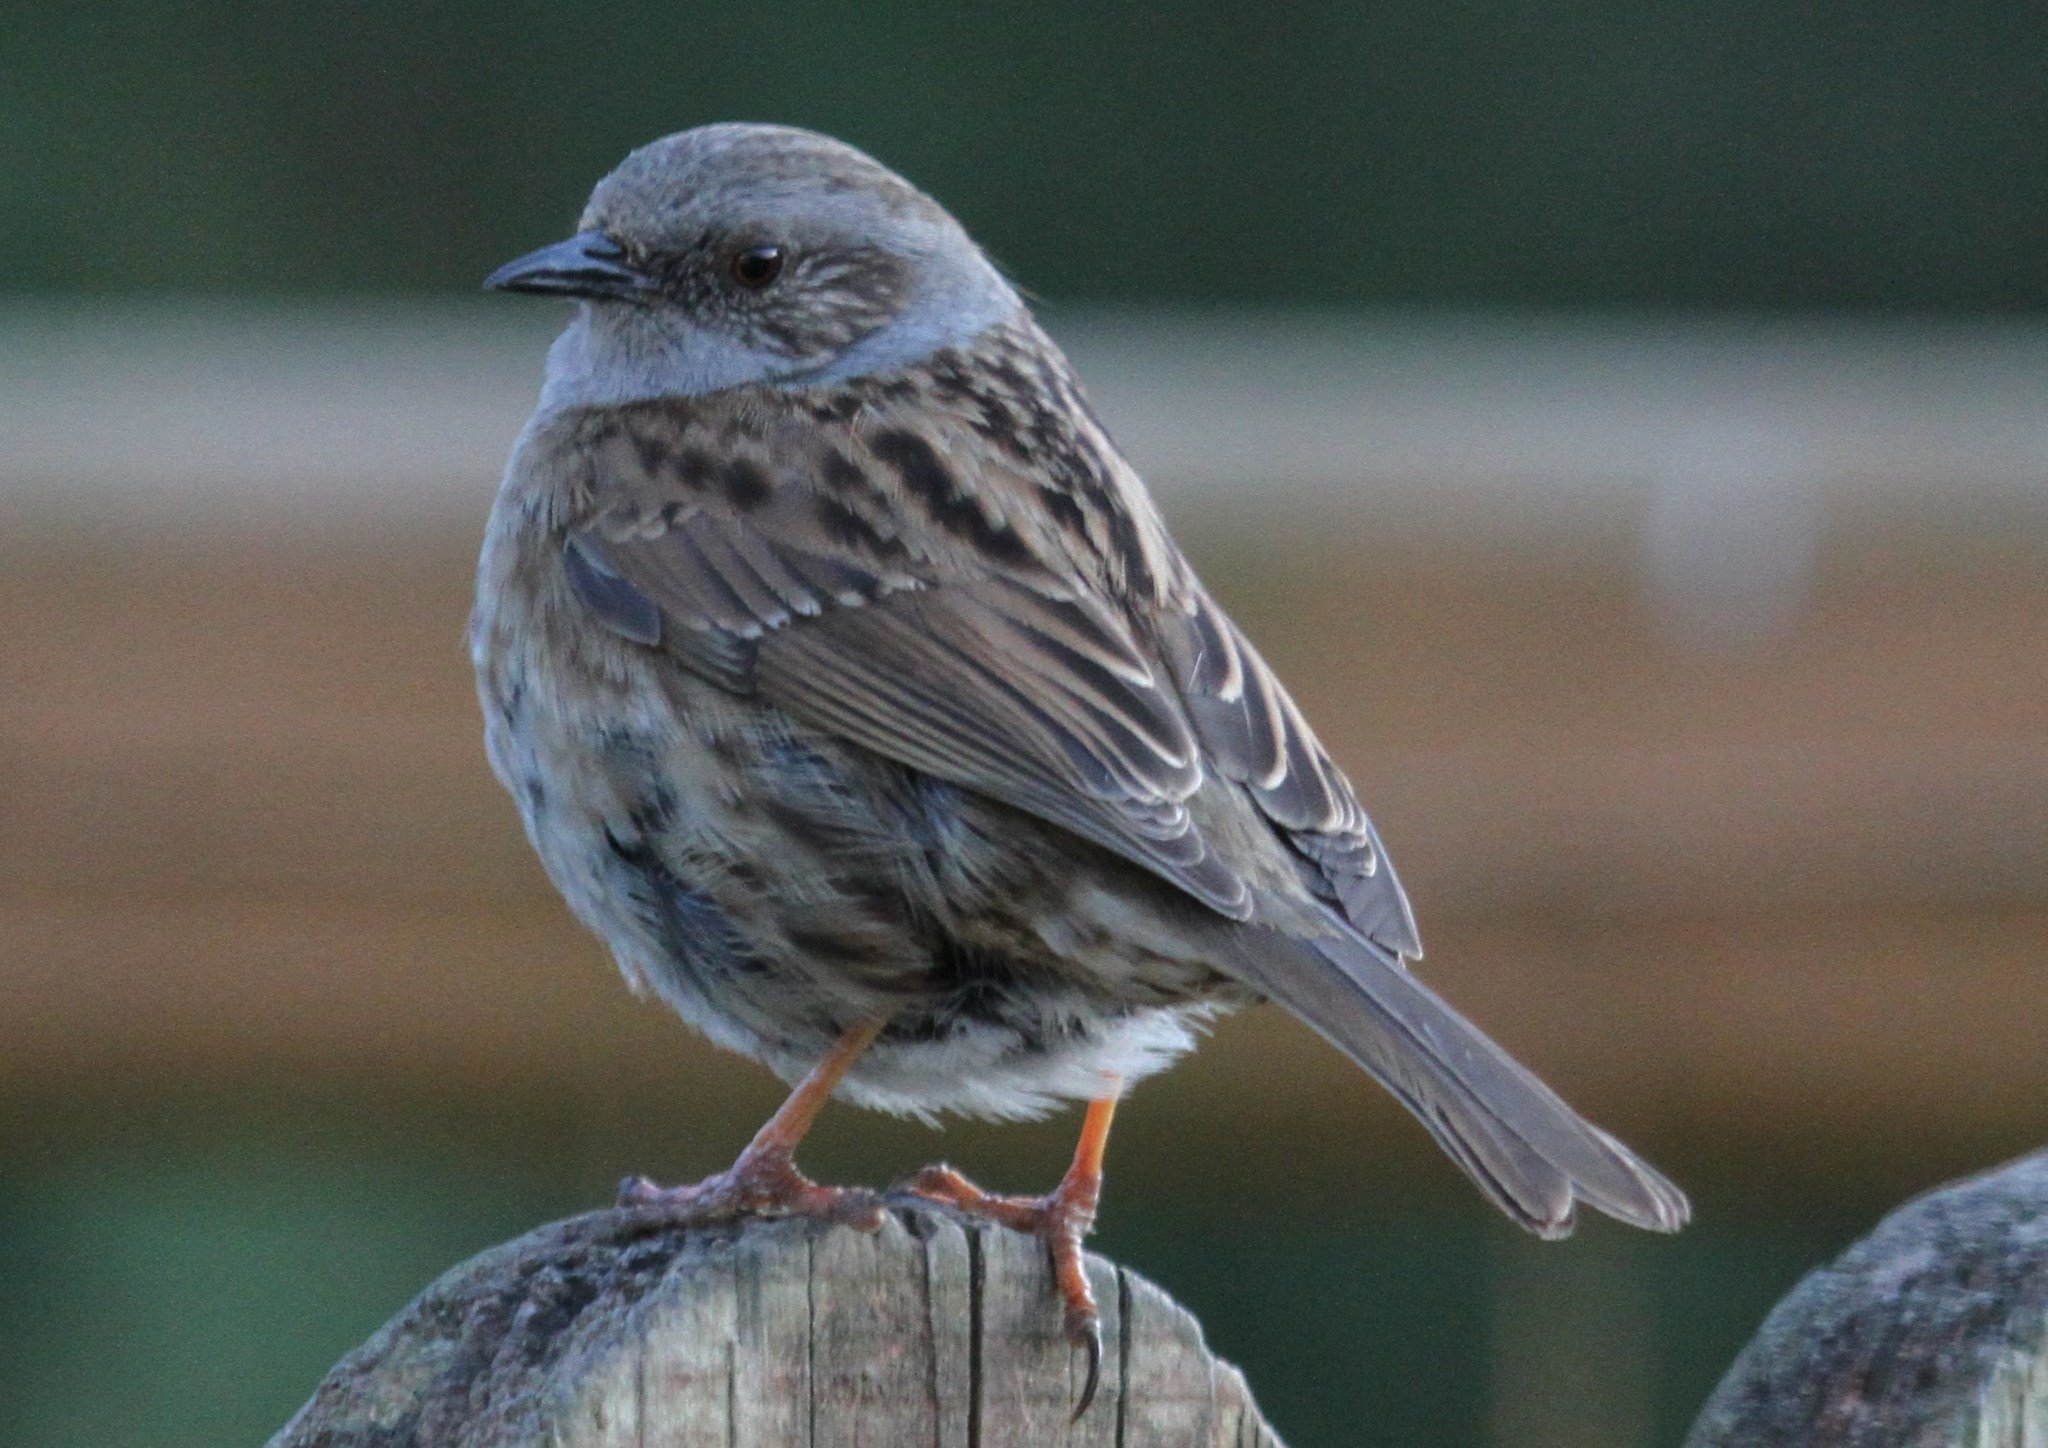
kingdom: Animalia
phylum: Chordata
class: Aves
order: Passeriformes
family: Prunellidae
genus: Prunella
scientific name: Prunella modularis
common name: Dunnock
